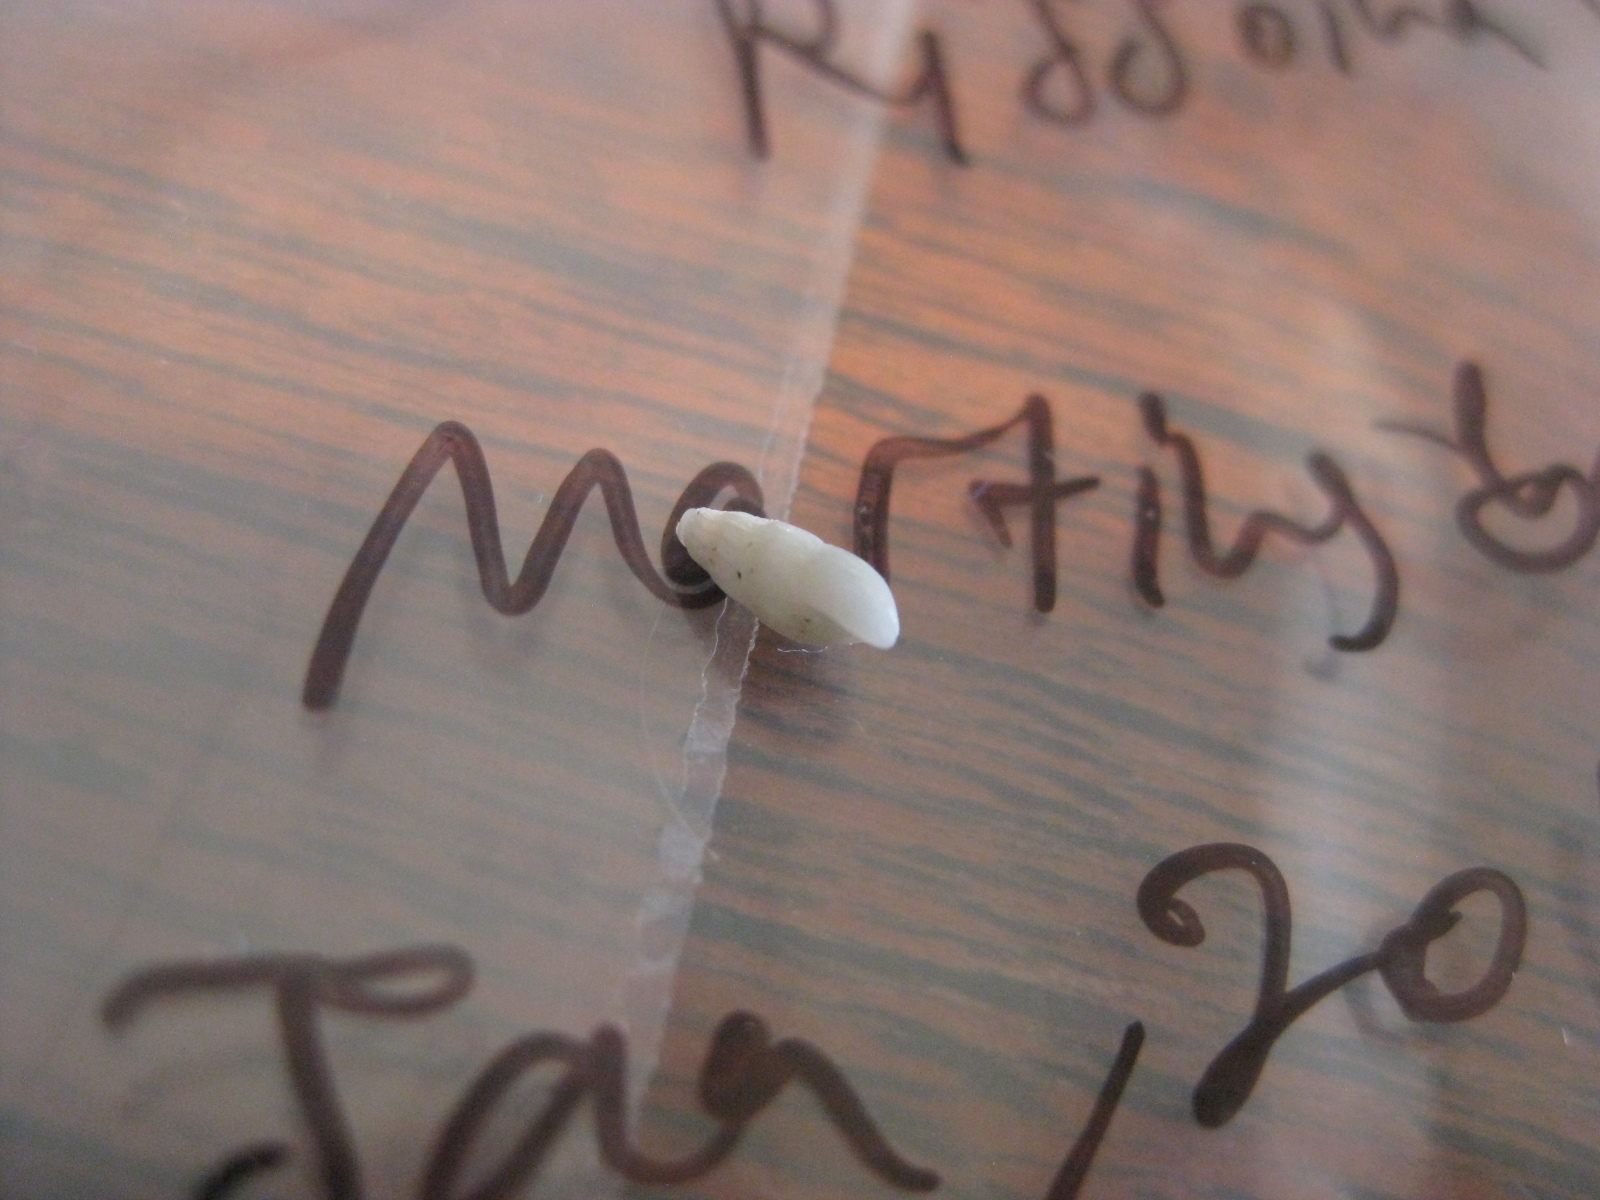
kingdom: Animalia
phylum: Mollusca
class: Gastropoda
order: Littorinimorpha
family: Rissoinidae
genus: Rissoina
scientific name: Rissoina chathamensis
